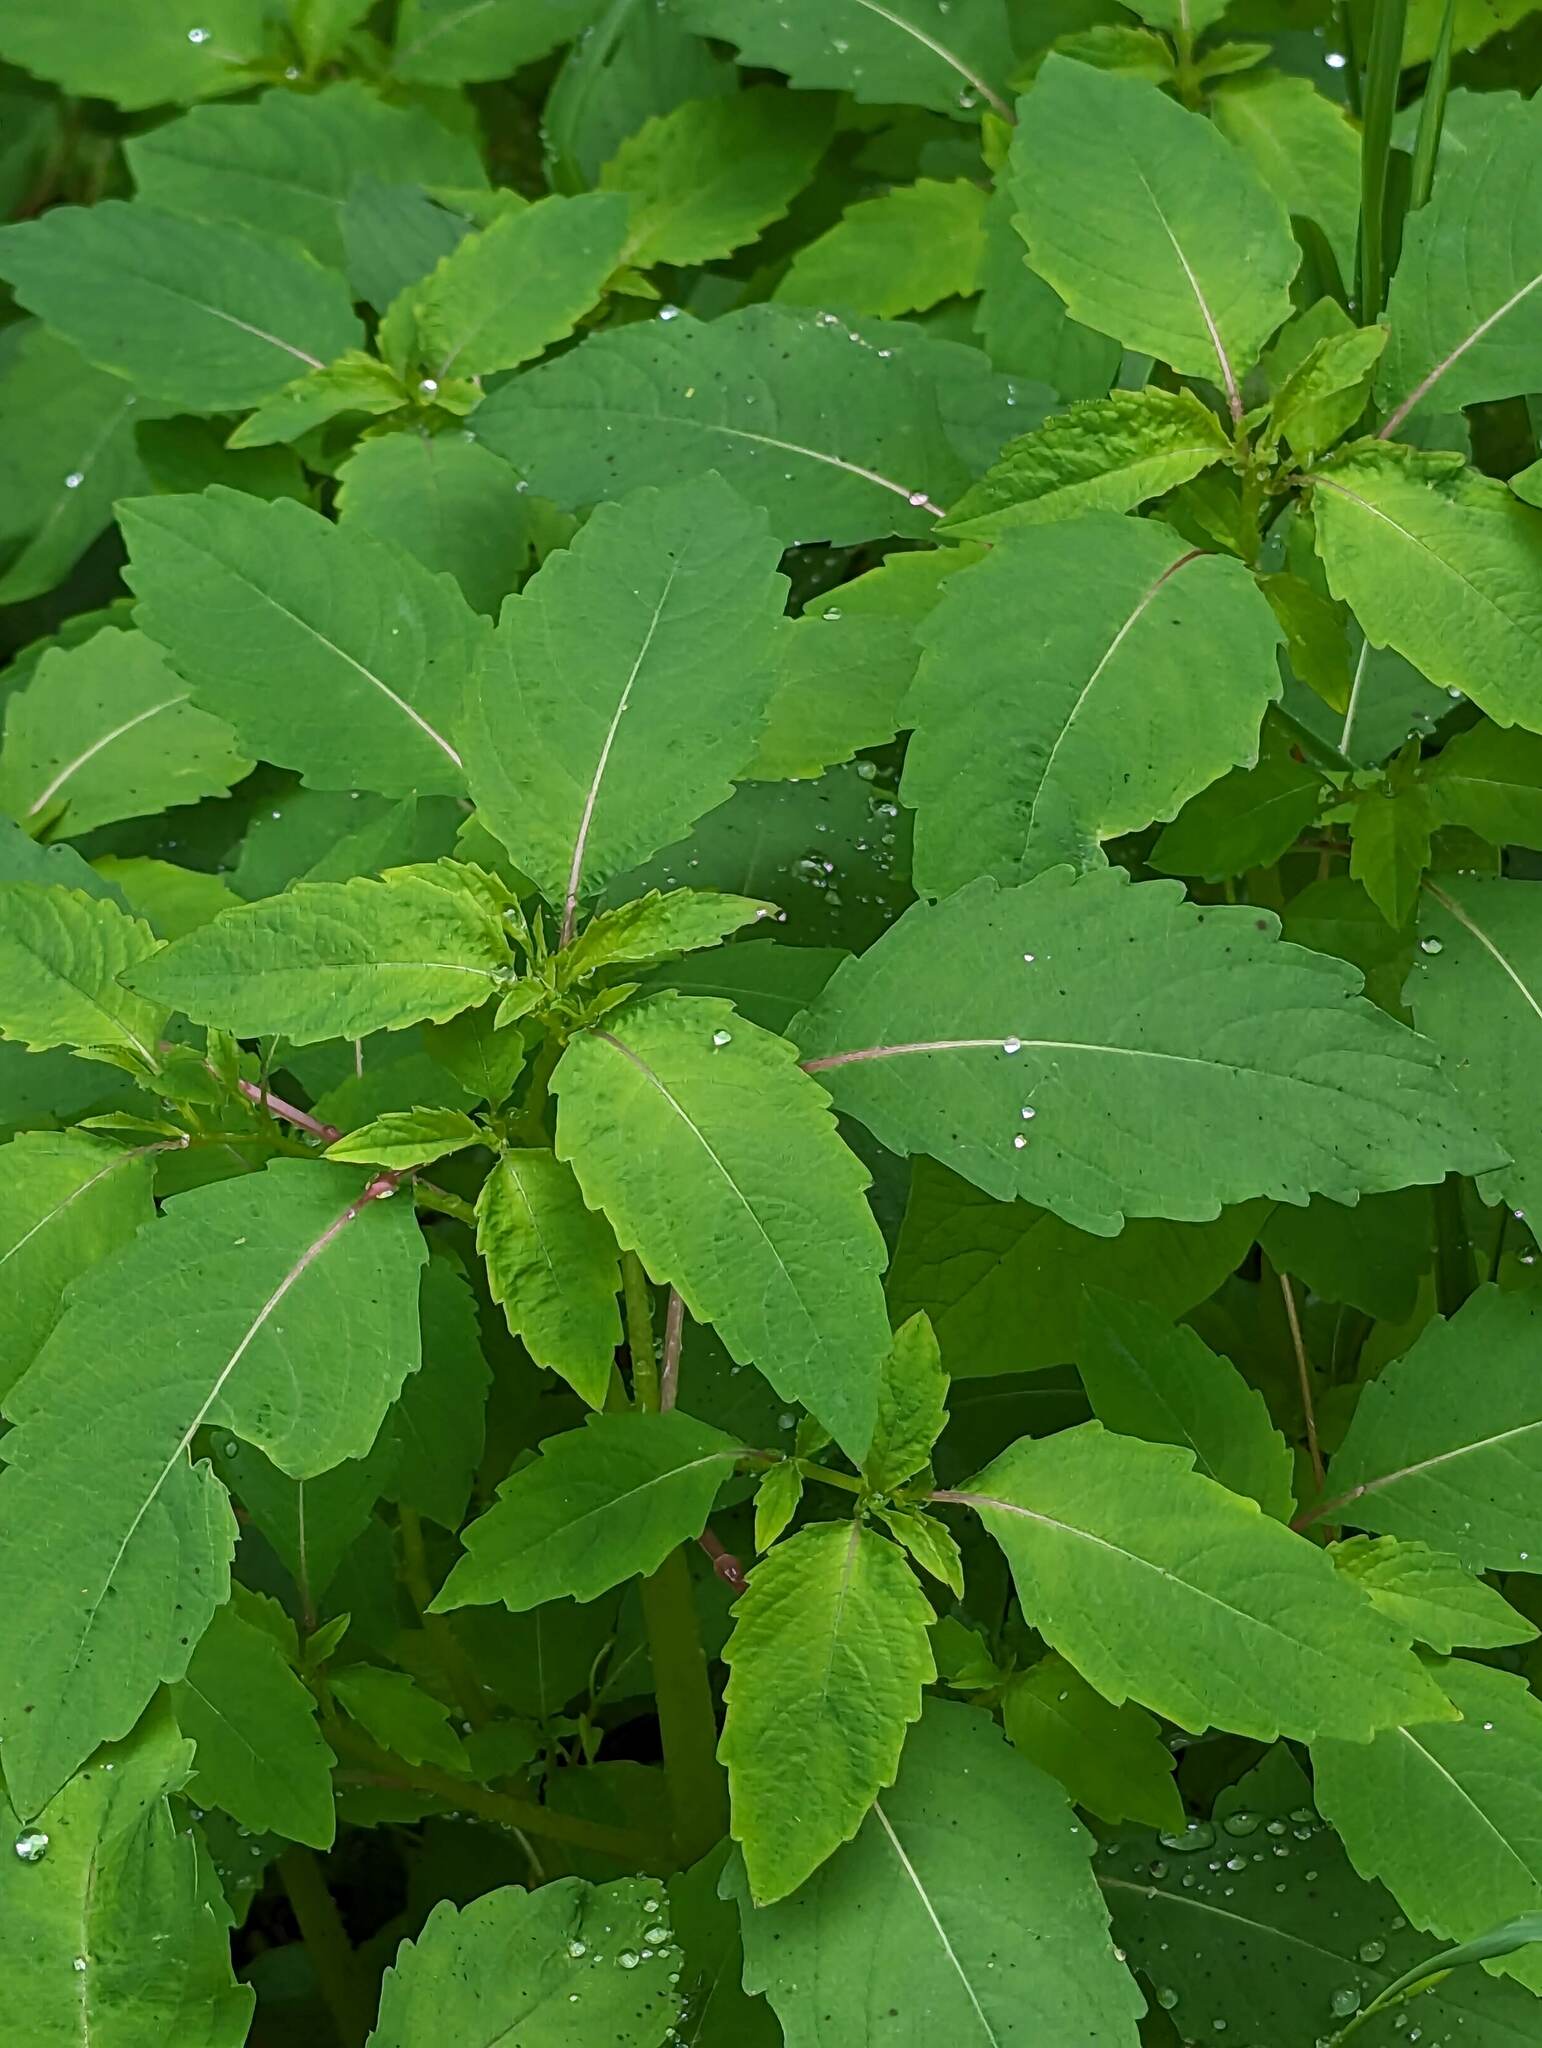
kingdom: Plantae
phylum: Tracheophyta
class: Magnoliopsida
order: Ericales
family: Balsaminaceae
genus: Impatiens
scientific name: Impatiens capensis
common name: Orange balsam
